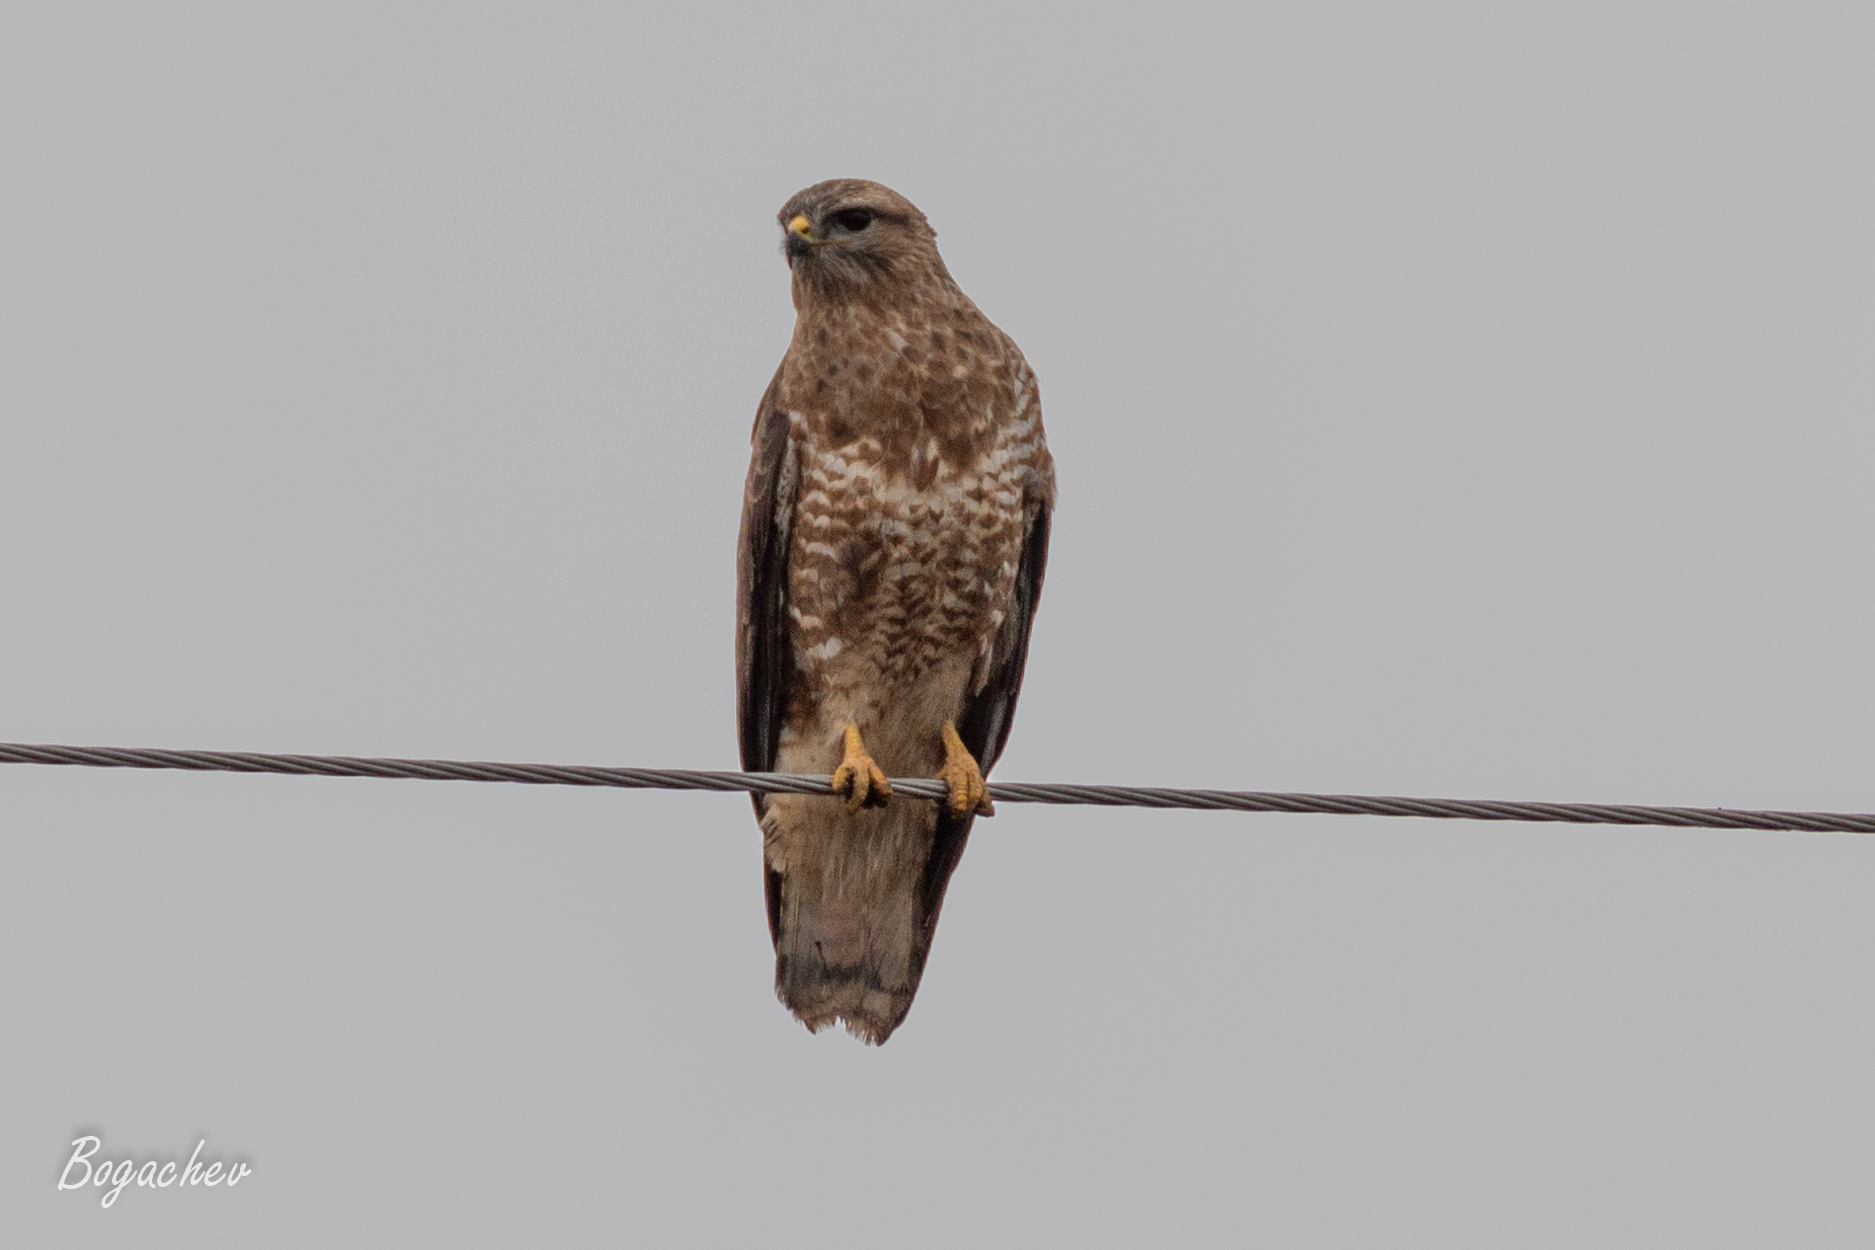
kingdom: Animalia
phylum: Chordata
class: Aves
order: Accipitriformes
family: Accipitridae
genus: Buteo
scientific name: Buteo buteo
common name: Common buzzard
